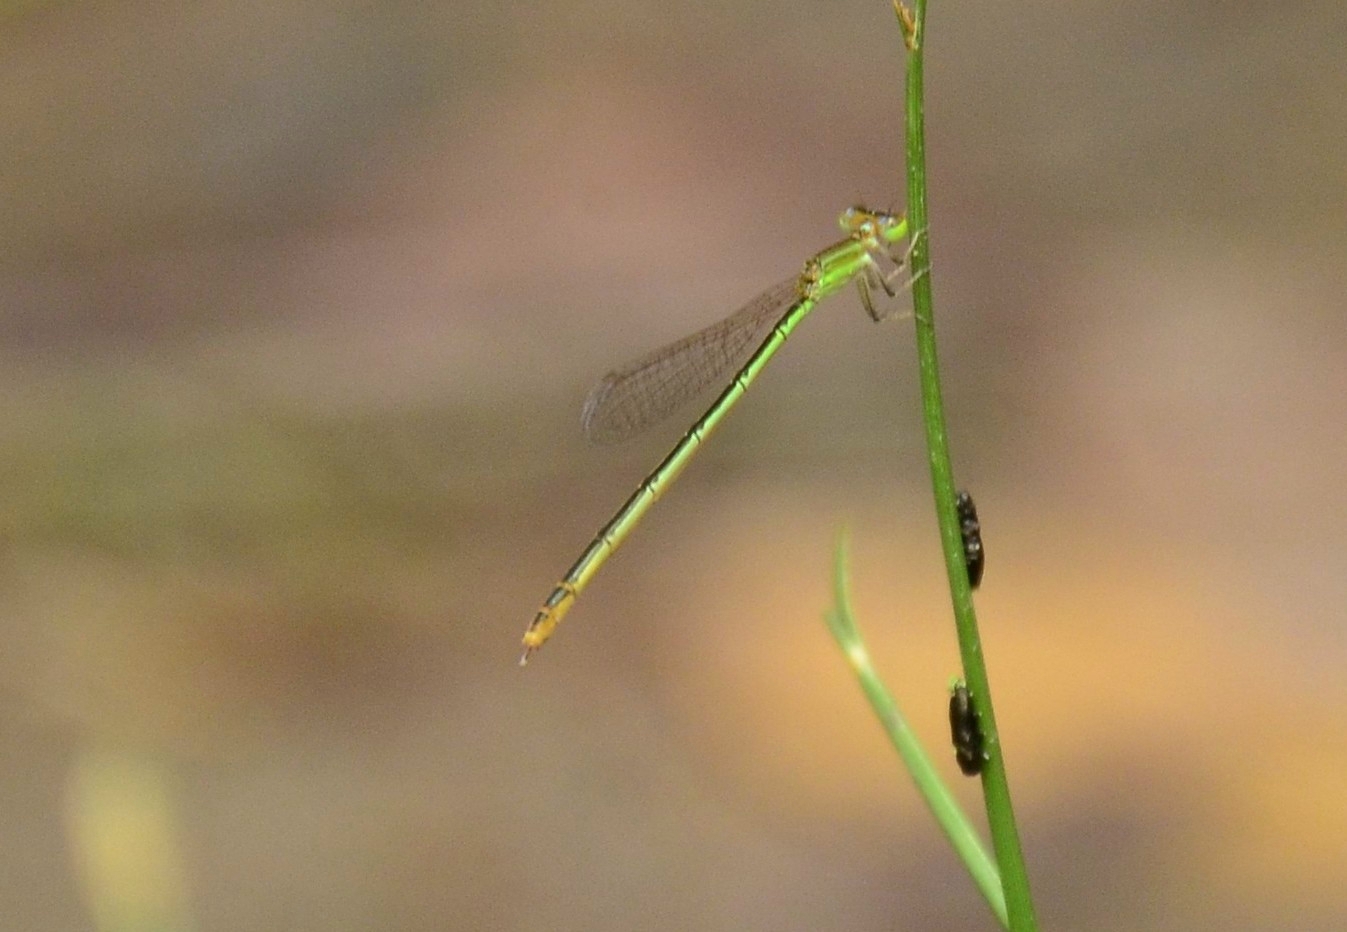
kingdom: Animalia
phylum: Arthropoda
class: Insecta
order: Odonata
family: Coenagrionidae
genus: Agriocnemis
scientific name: Agriocnemis pygmaea
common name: Pygmy wisp
